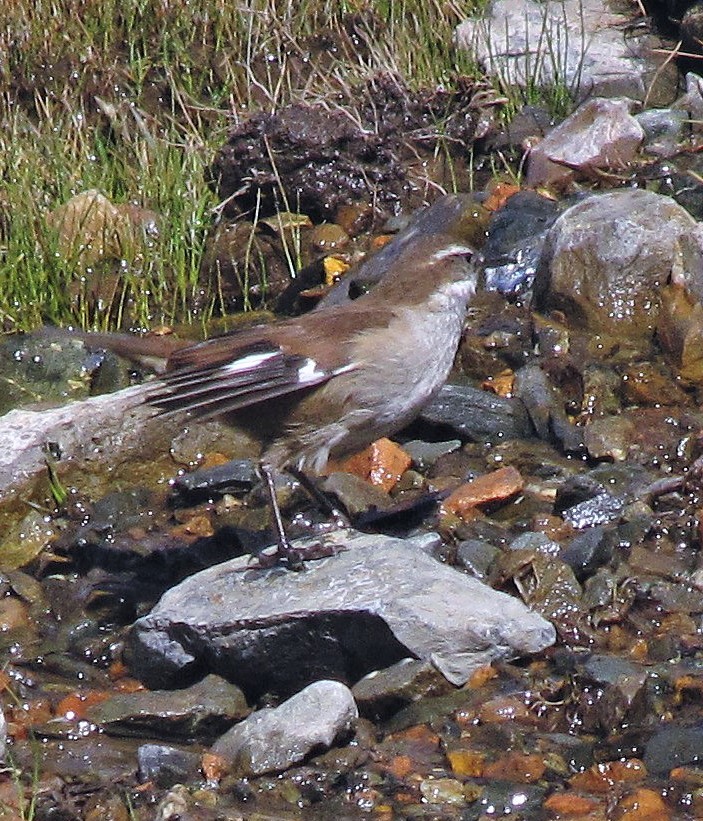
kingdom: Animalia
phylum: Chordata
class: Aves
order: Passeriformes
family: Furnariidae
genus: Cinclodes
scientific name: Cinclodes atacamensis
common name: White-winged cinclodes
